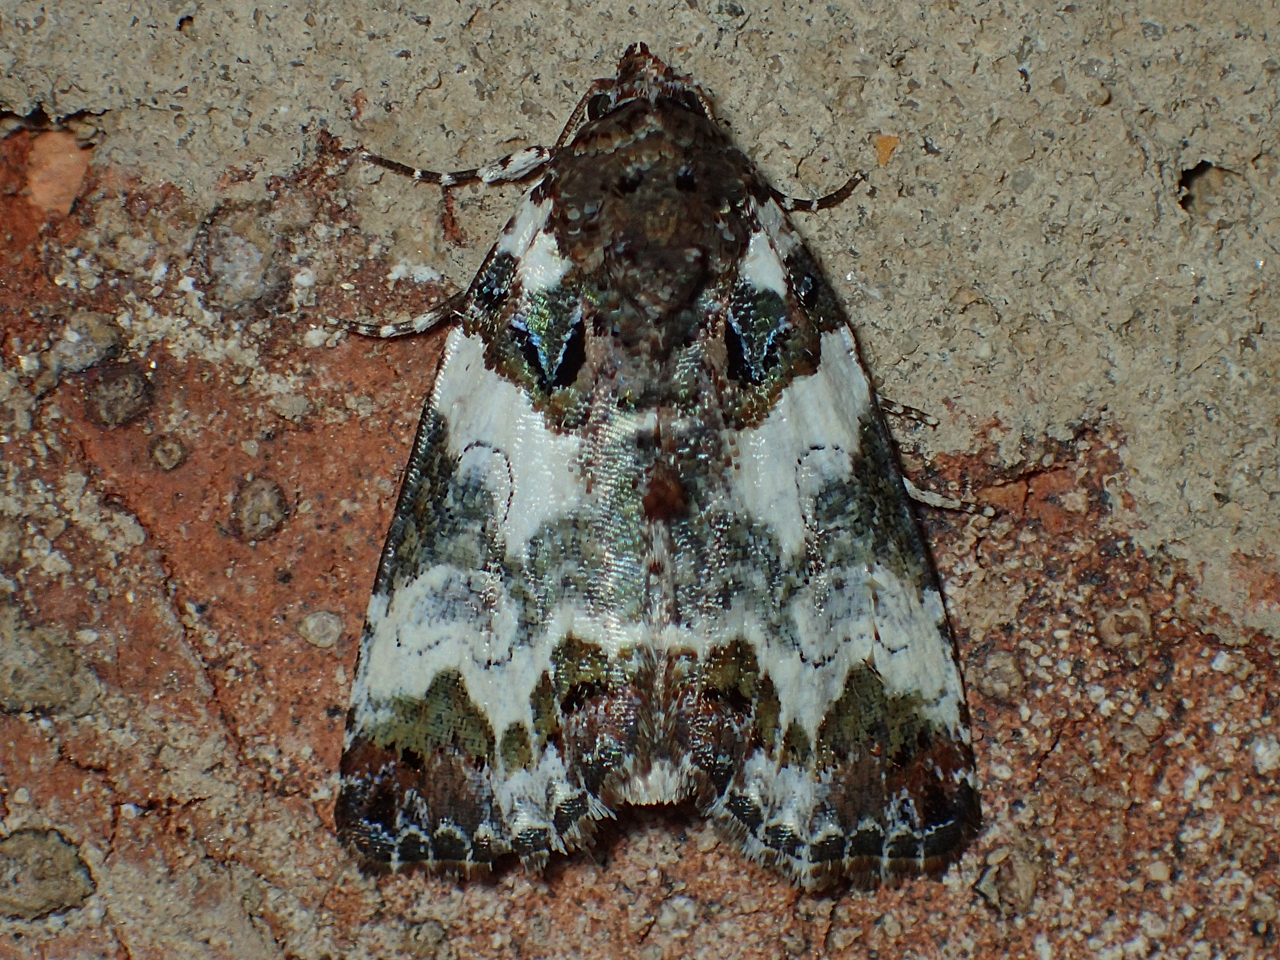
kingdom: Animalia
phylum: Arthropoda
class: Insecta
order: Lepidoptera
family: Noctuidae
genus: Cerma
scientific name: Cerma cerintha
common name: Tufted bird-dropping moth
